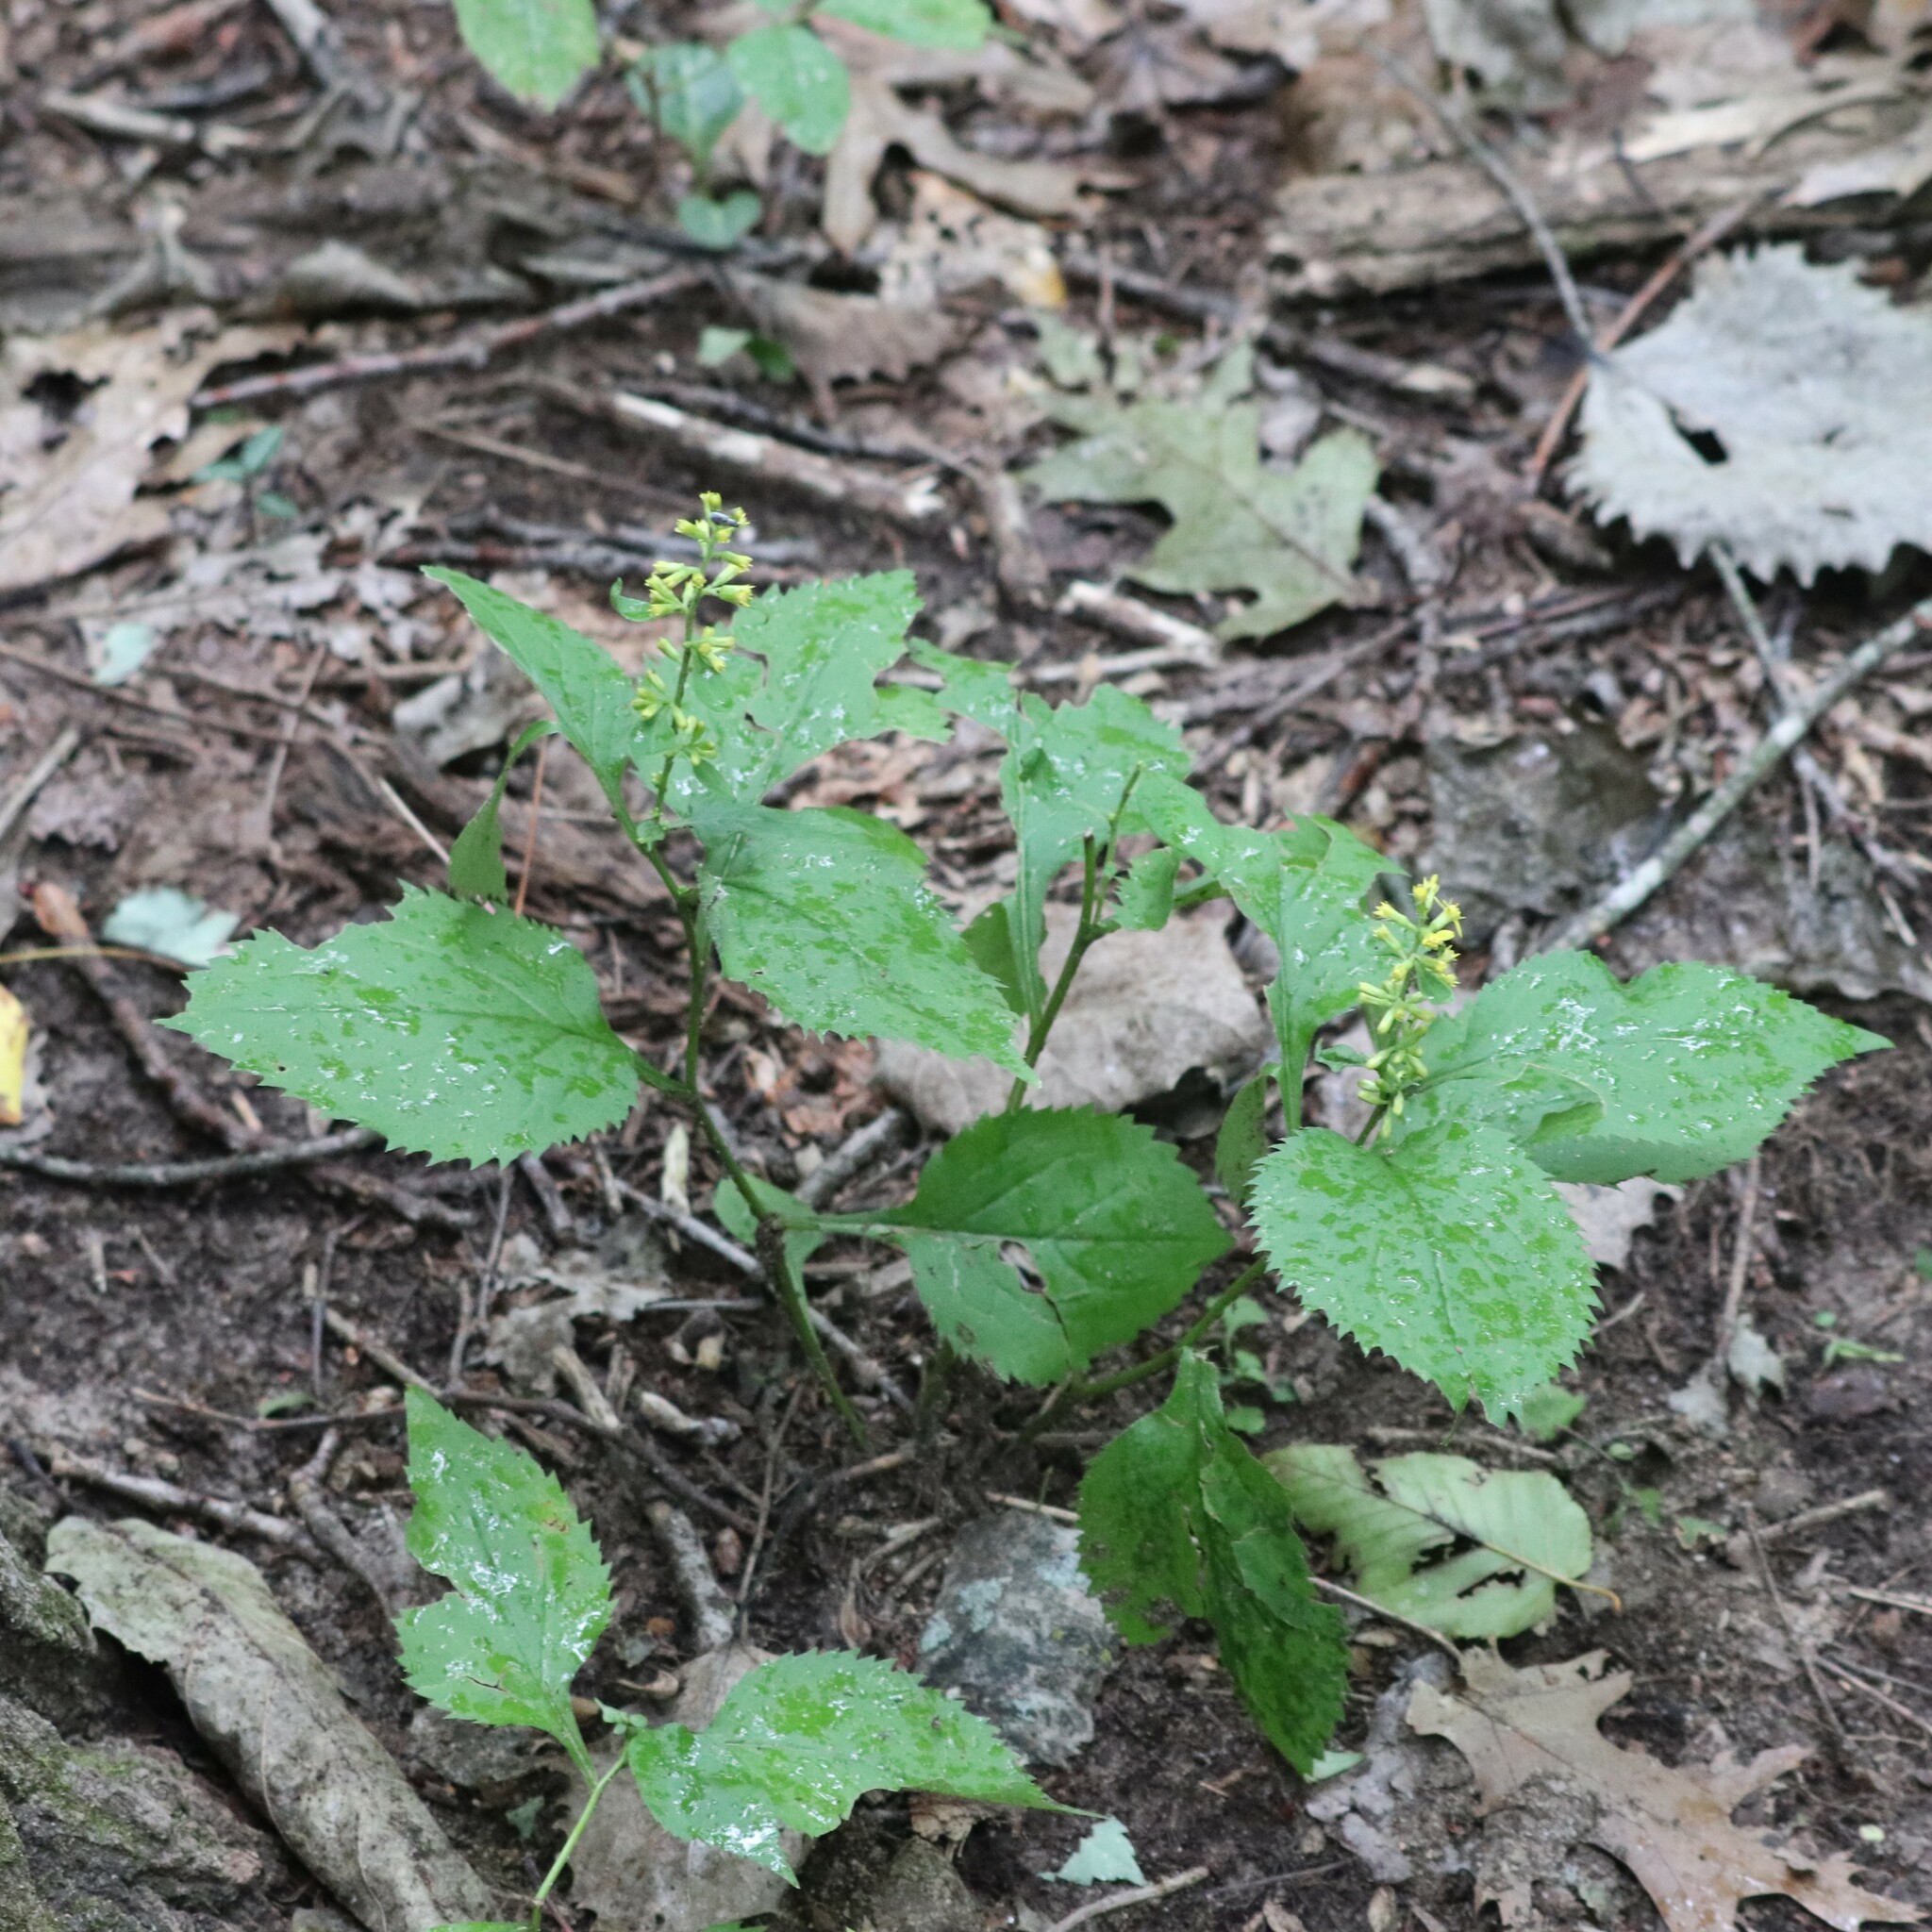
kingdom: Plantae
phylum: Tracheophyta
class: Magnoliopsida
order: Asterales
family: Asteraceae
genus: Solidago
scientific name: Solidago flexicaulis
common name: Zig-zag goldenrod
